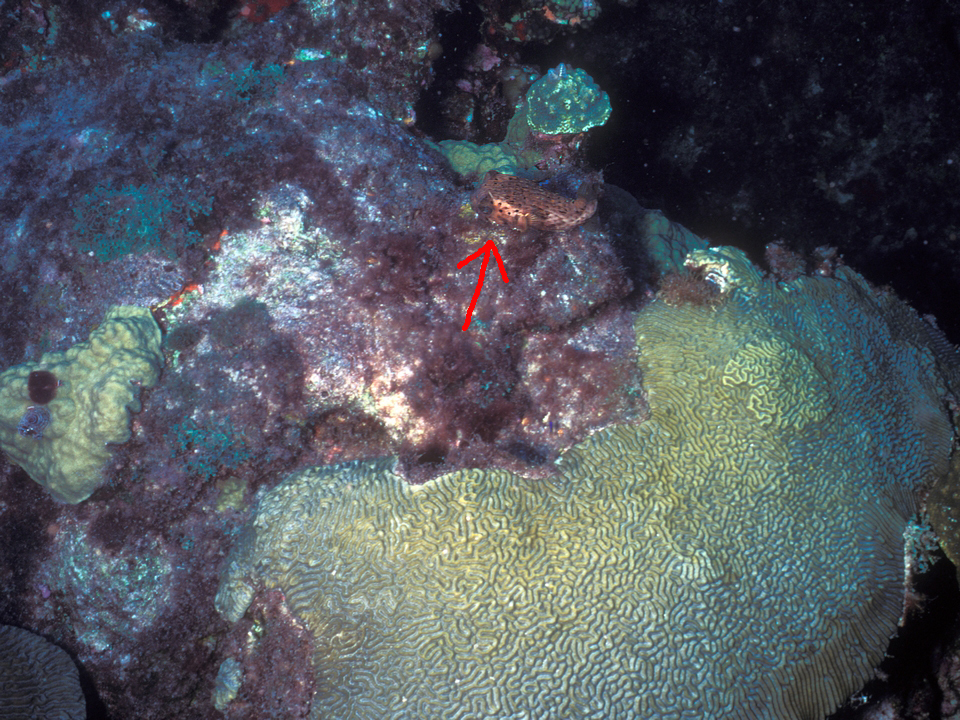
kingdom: Animalia
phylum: Chordata
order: Tetraodontiformes
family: Diodontidae
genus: Diodon
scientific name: Diodon holocanthus
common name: Balloonfish
